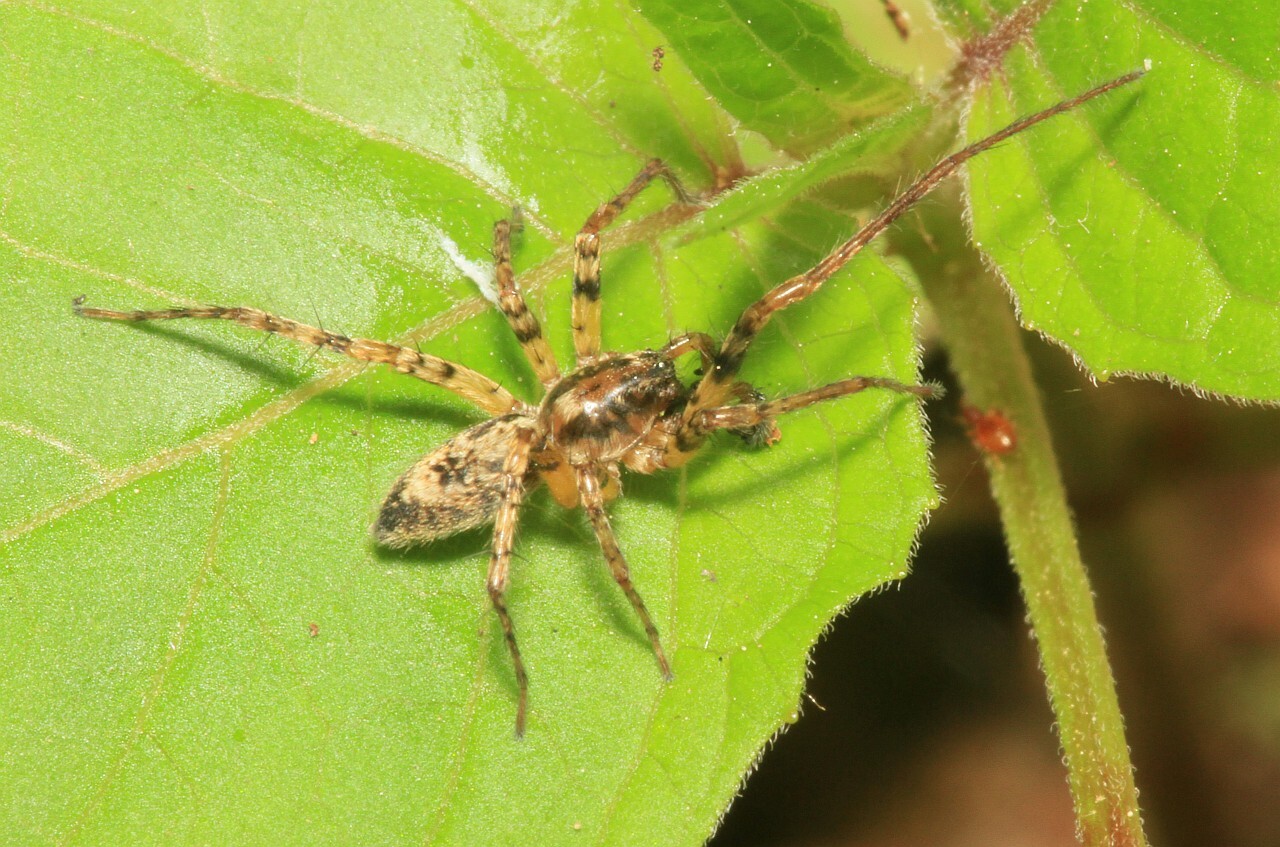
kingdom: Animalia
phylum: Arthropoda
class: Arachnida
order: Araneae
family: Anyphaenidae
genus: Anyphaena
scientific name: Anyphaena accentuata
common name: Buzzing spider
